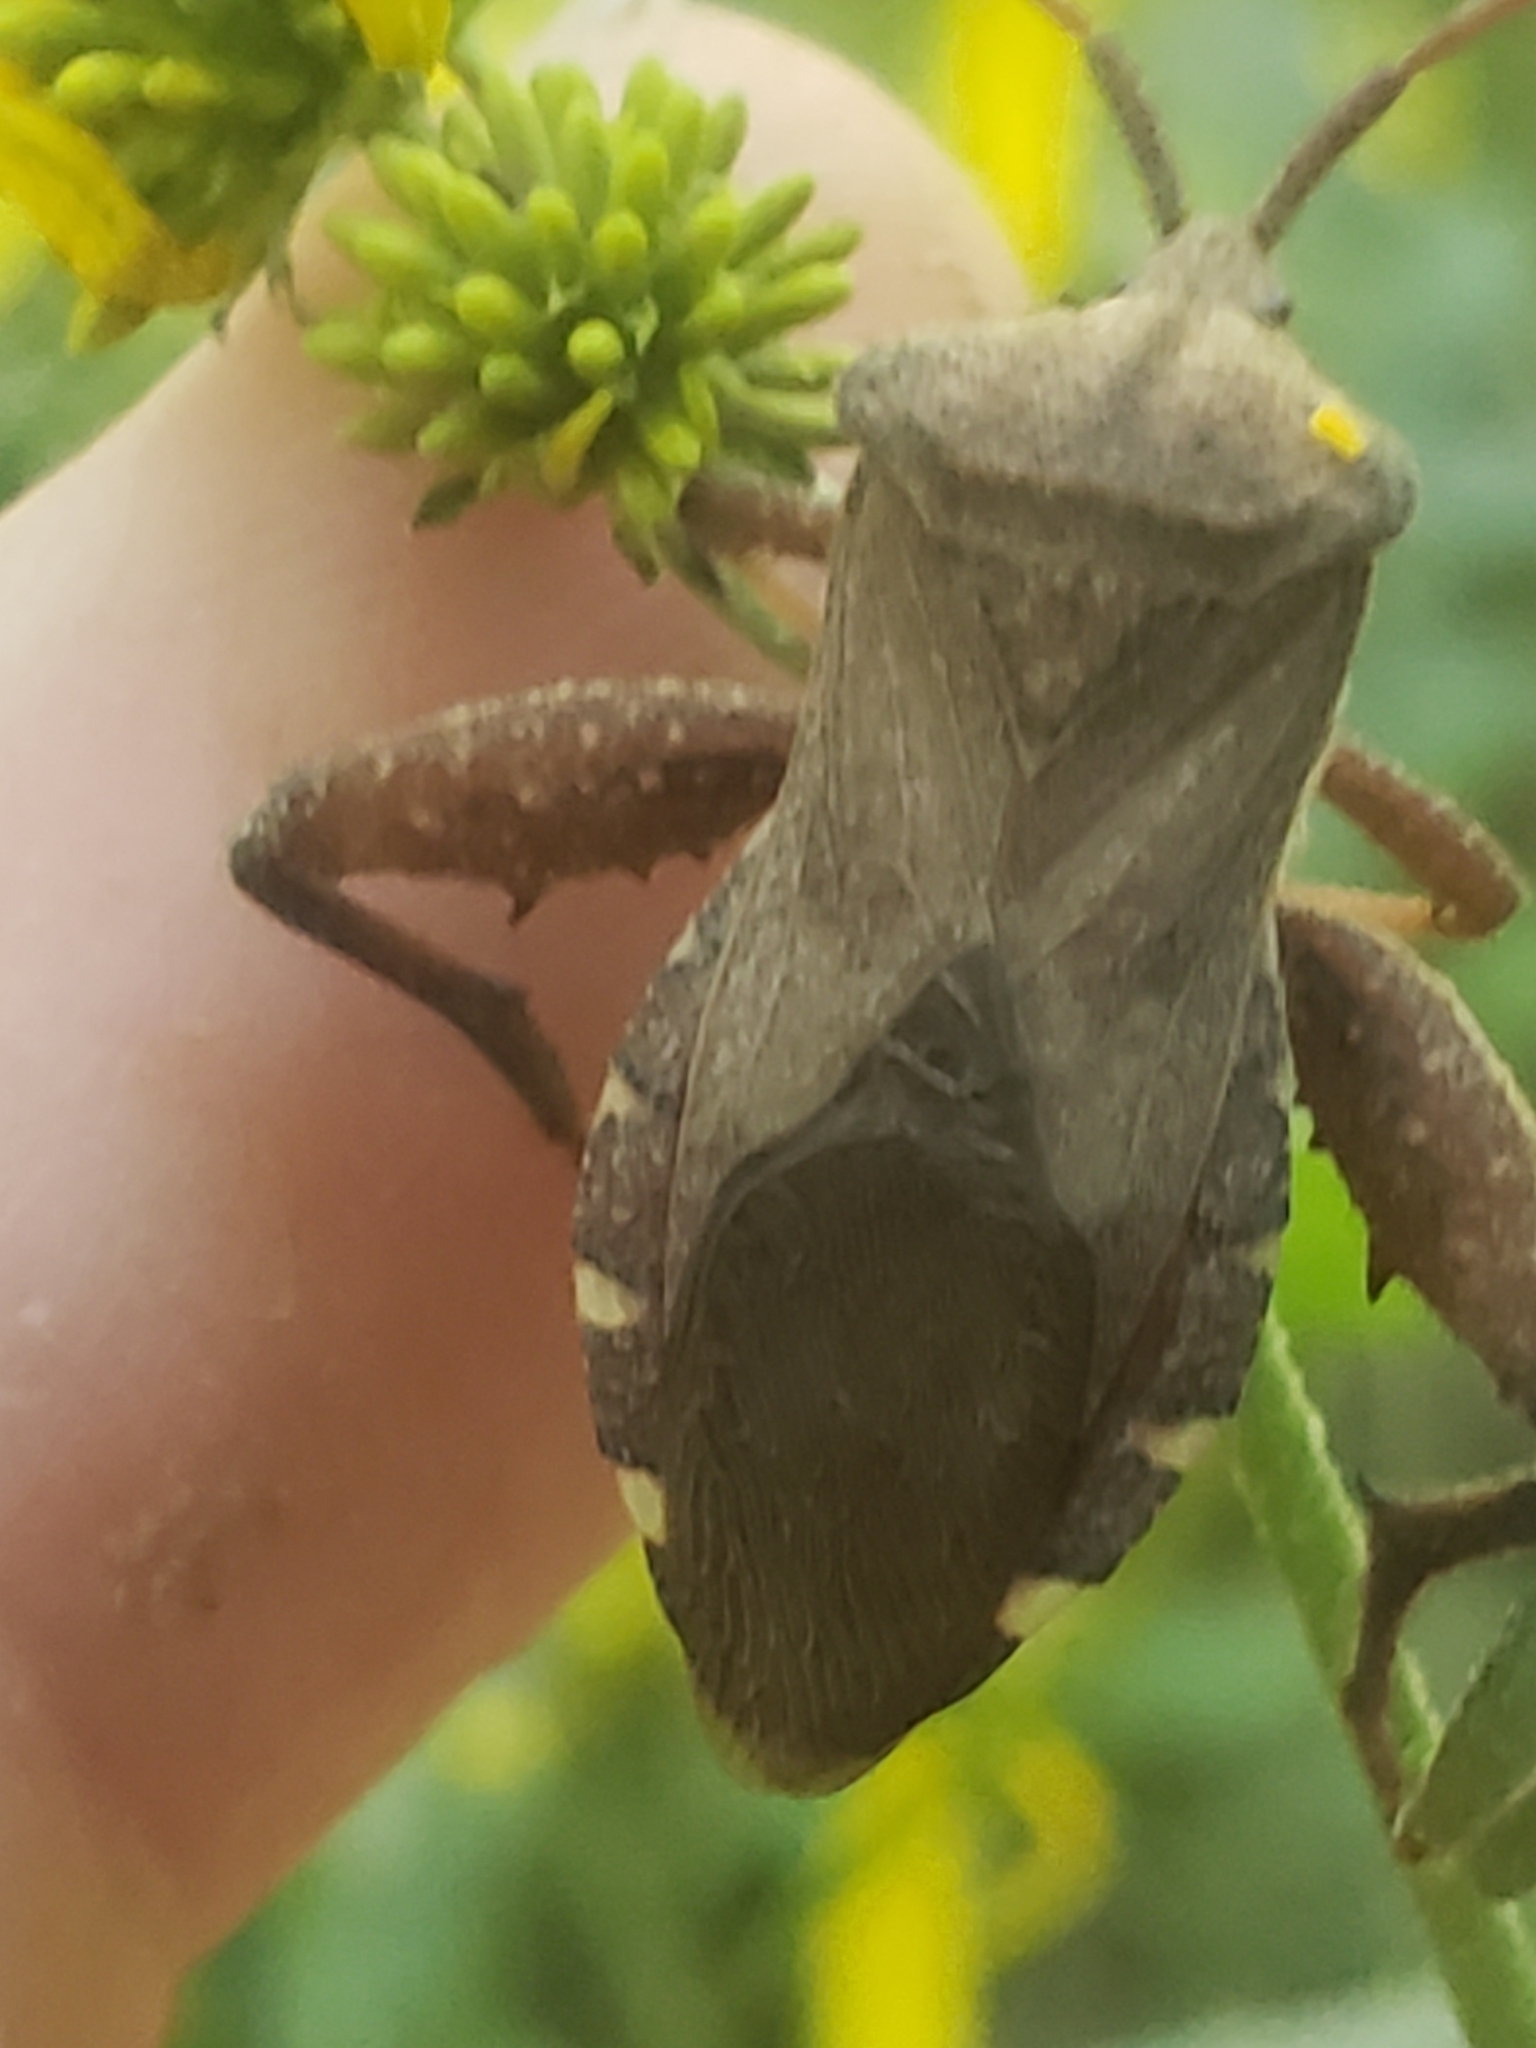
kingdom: Animalia
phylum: Arthropoda
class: Insecta
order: Hemiptera
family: Coreidae
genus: Piezogaster
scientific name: Piezogaster calcarator
